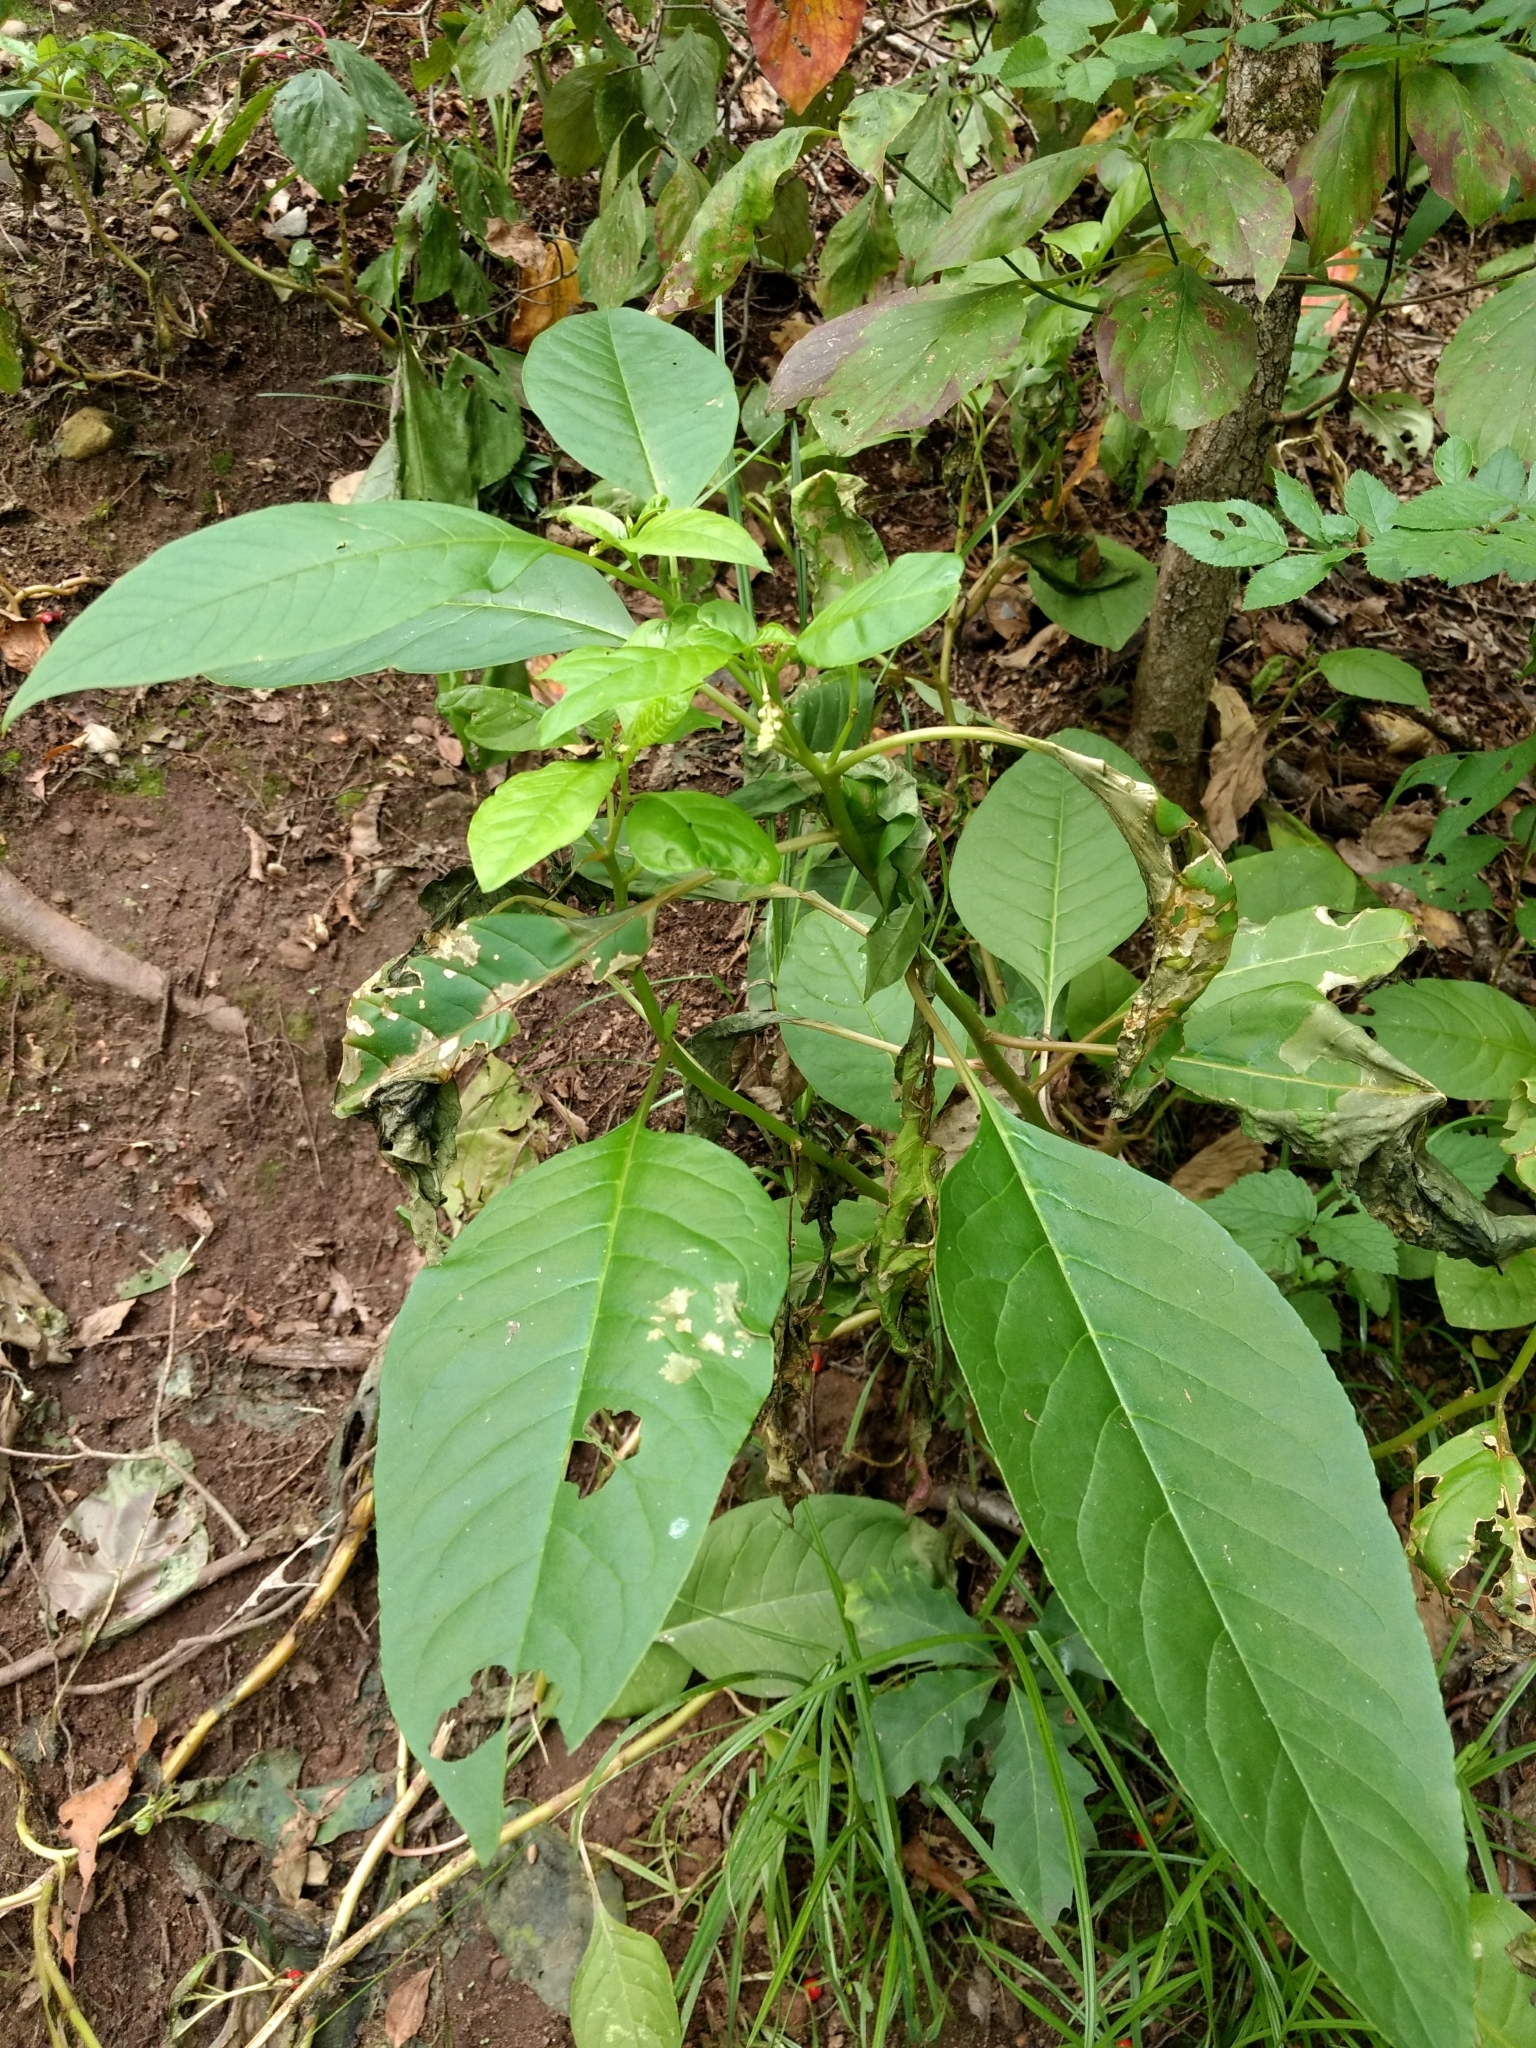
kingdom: Plantae
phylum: Tracheophyta
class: Magnoliopsida
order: Caryophyllales
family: Phytolaccaceae
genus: Phytolacca
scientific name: Phytolacca americana
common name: American pokeweed
